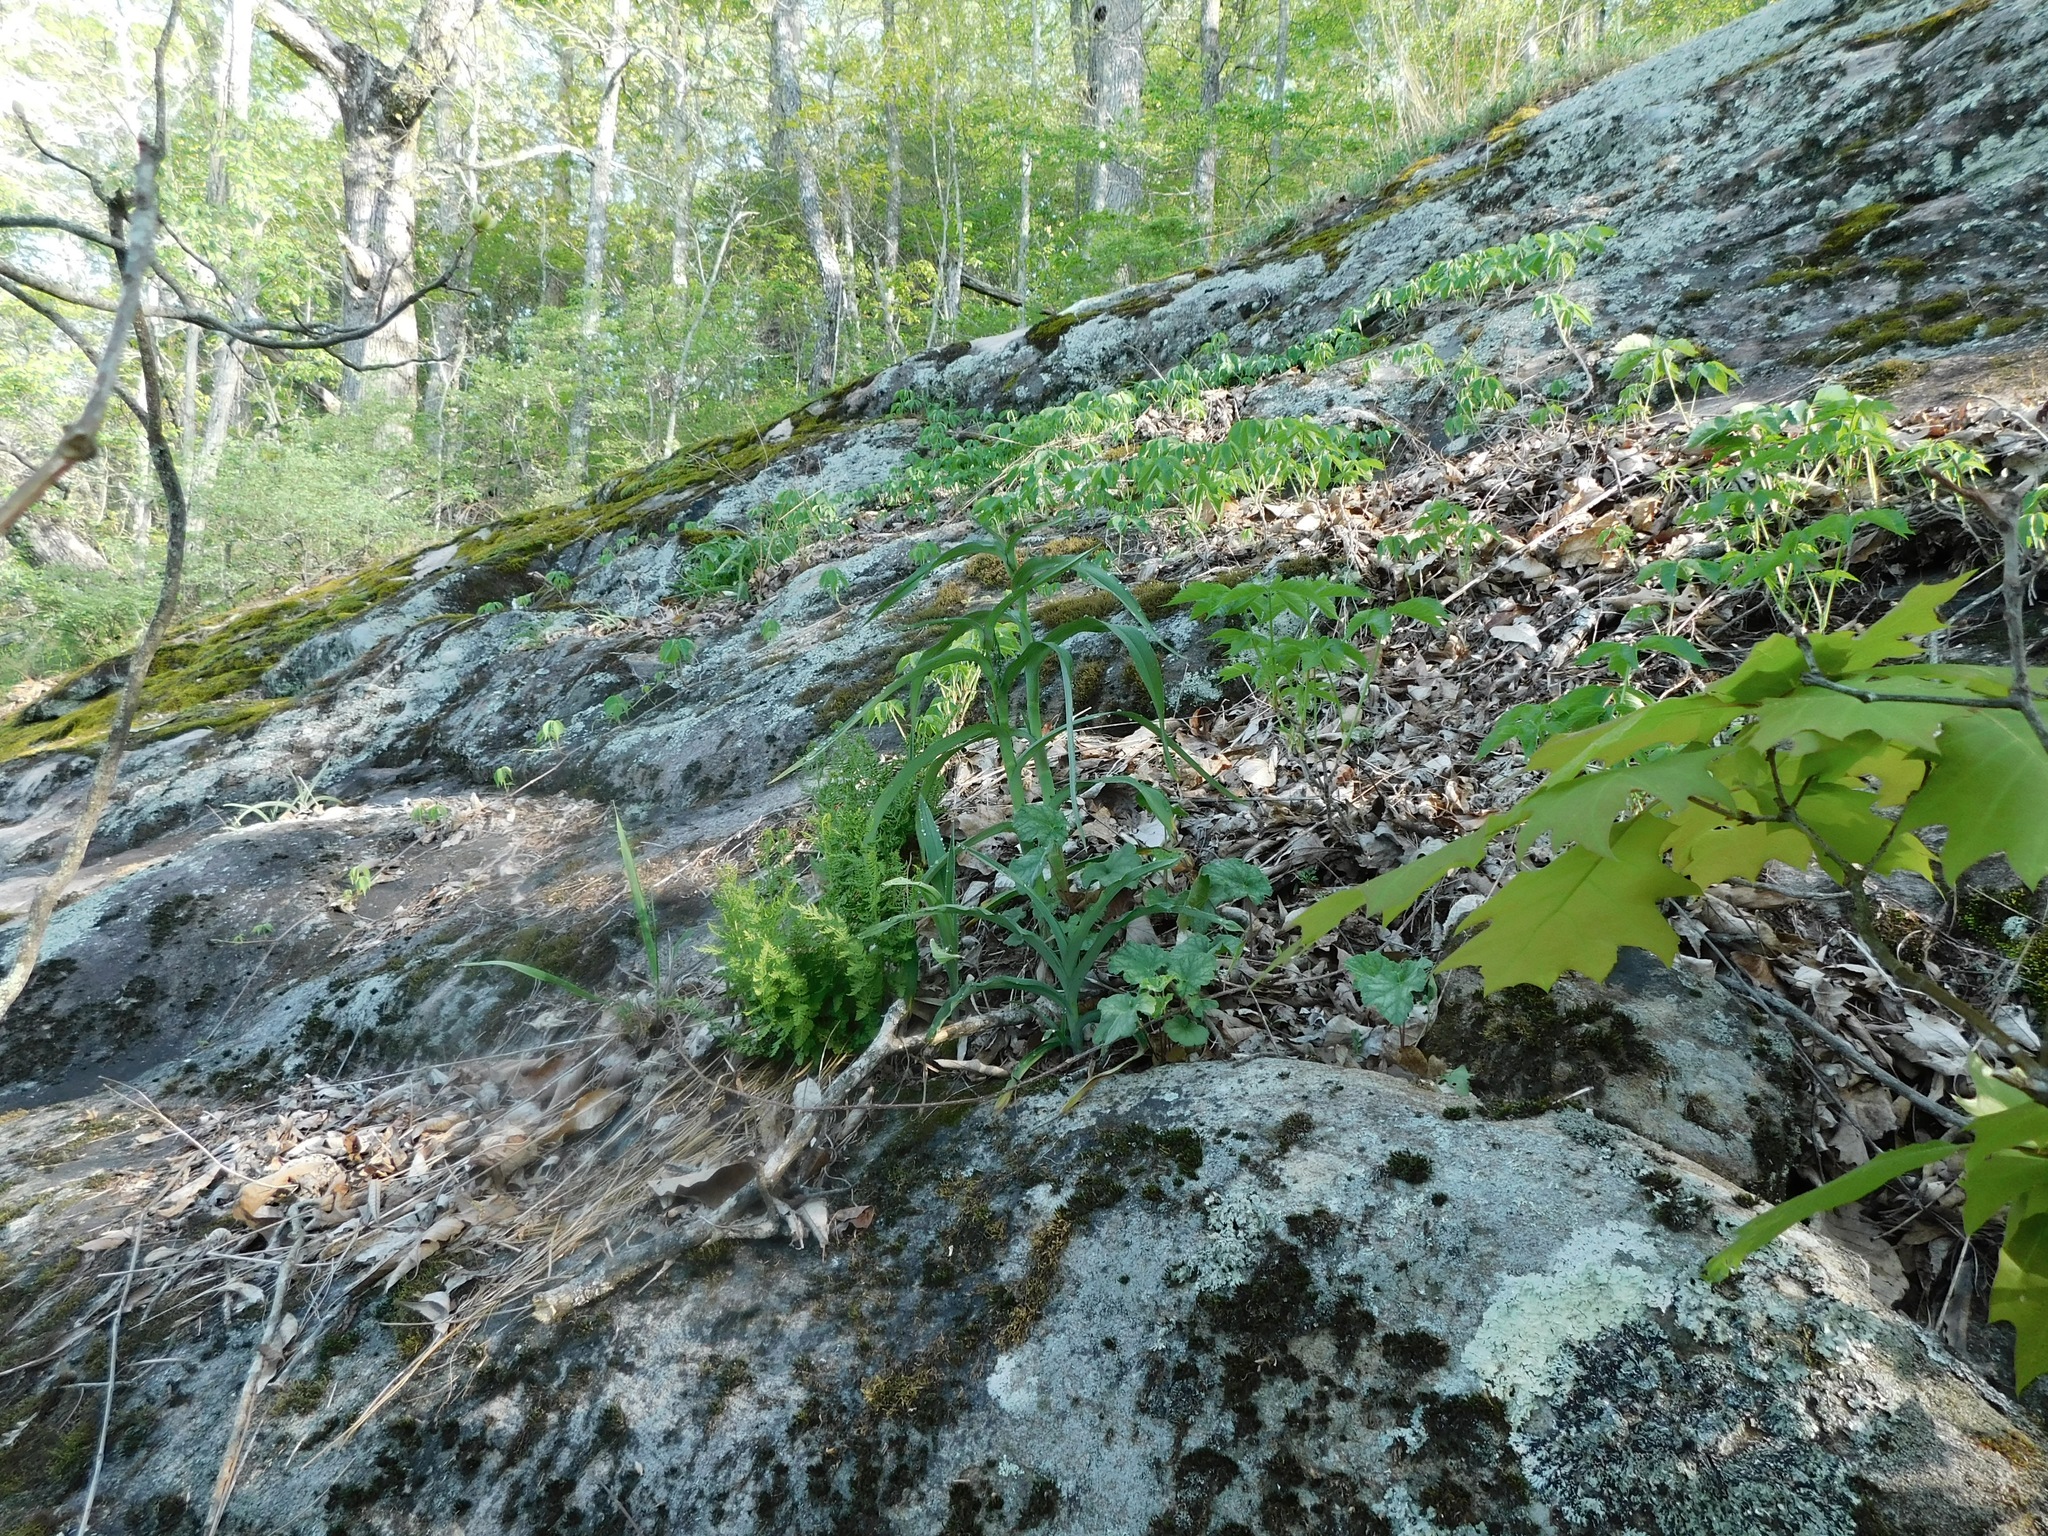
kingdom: Plantae
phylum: Tracheophyta
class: Polypodiopsida
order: Polypodiales
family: Woodsiaceae
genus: Physematium
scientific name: Physematium obtusum
